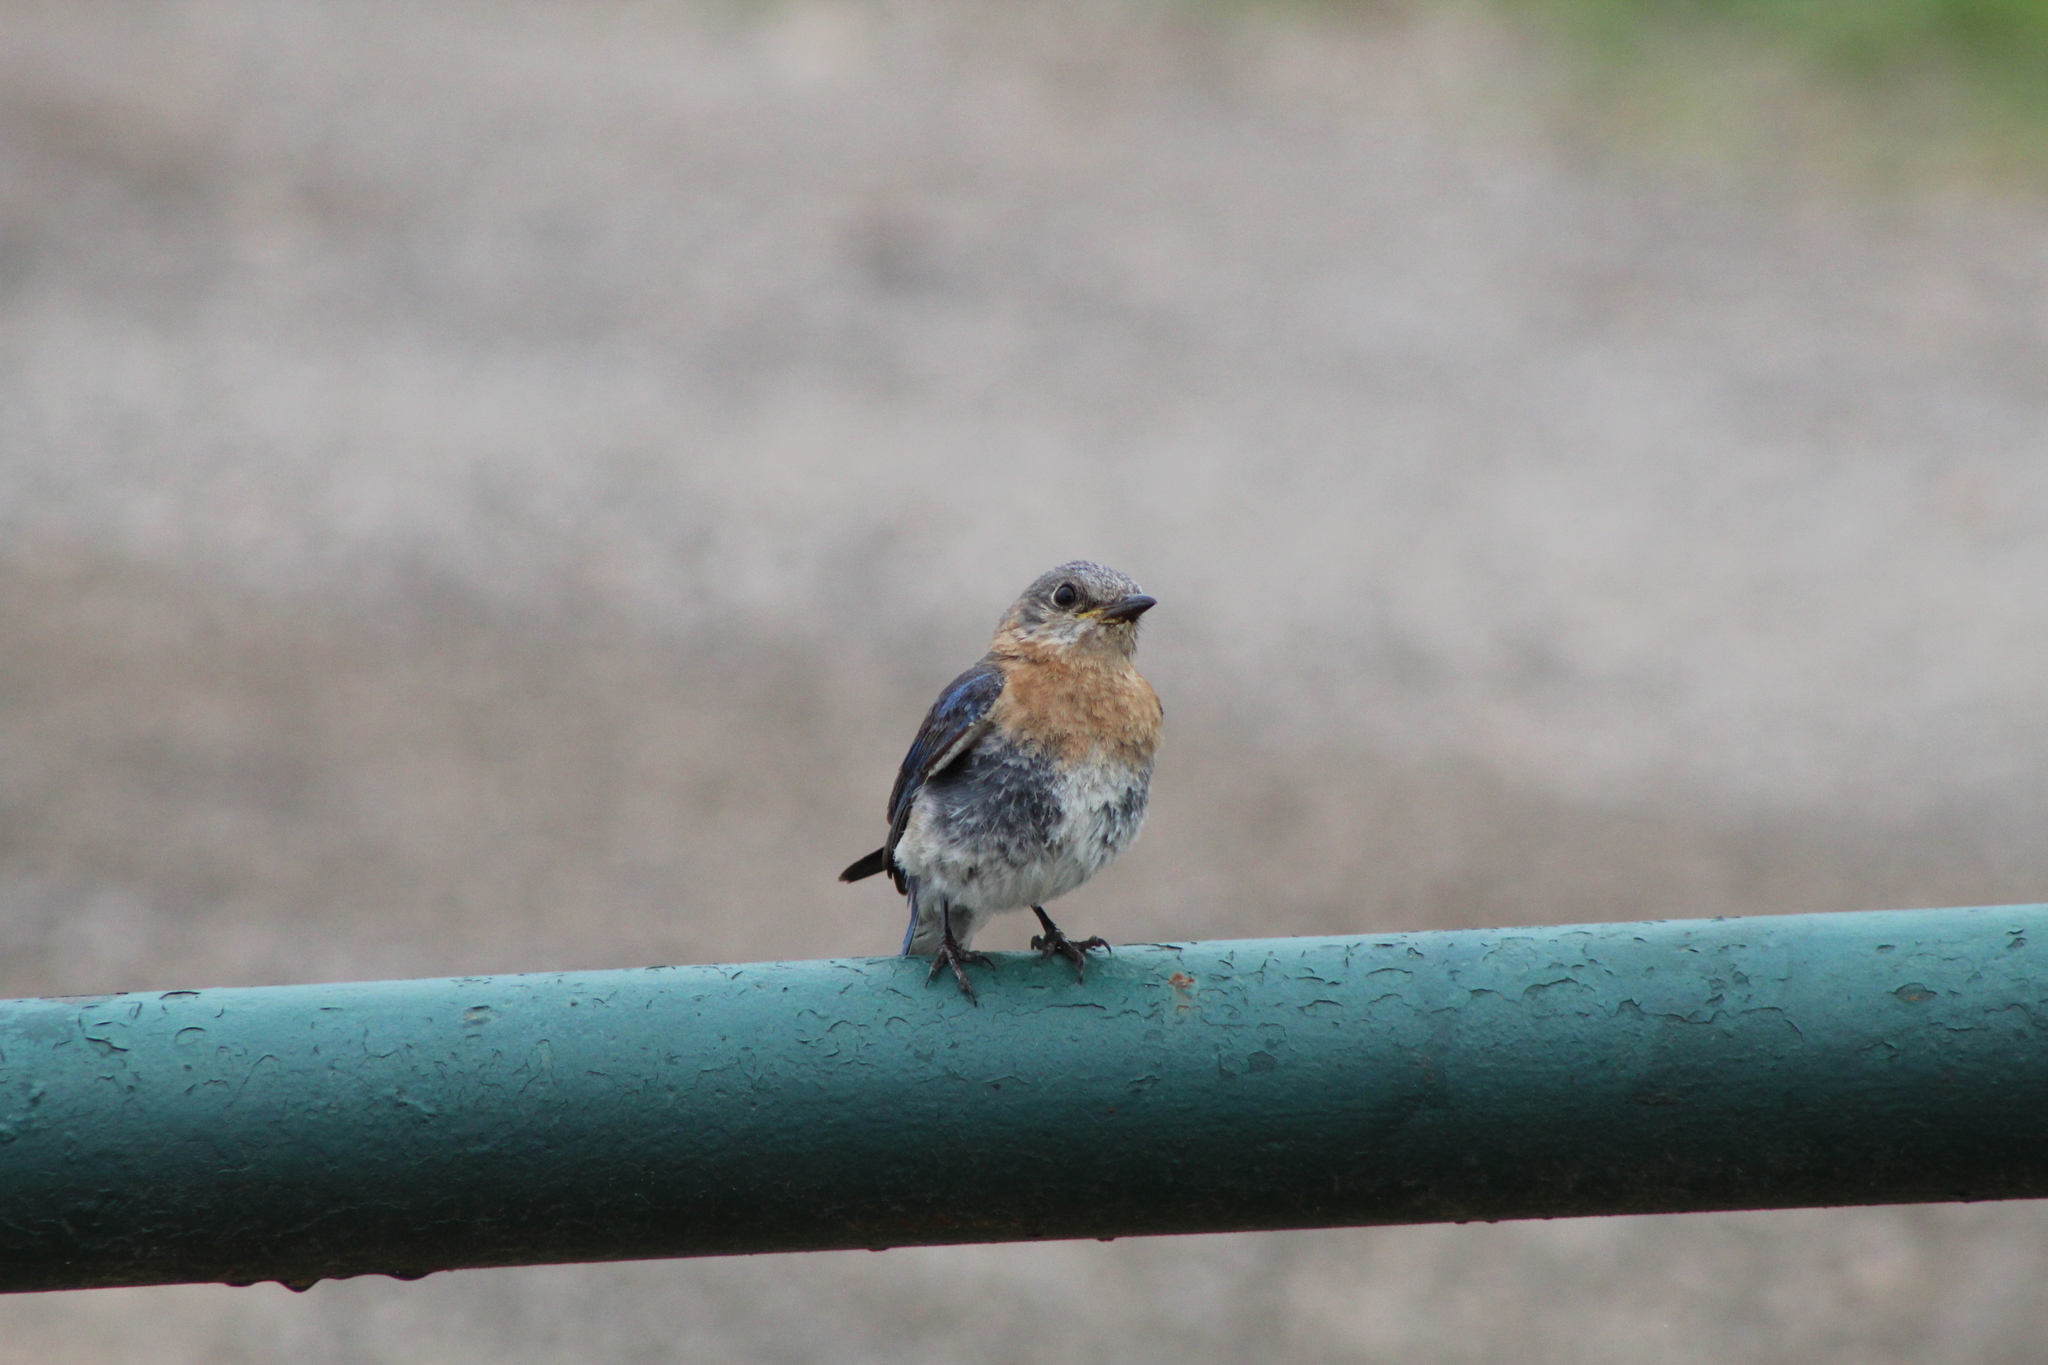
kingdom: Animalia
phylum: Chordata
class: Aves
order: Passeriformes
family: Turdidae
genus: Sialia
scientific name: Sialia sialis
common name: Eastern bluebird
